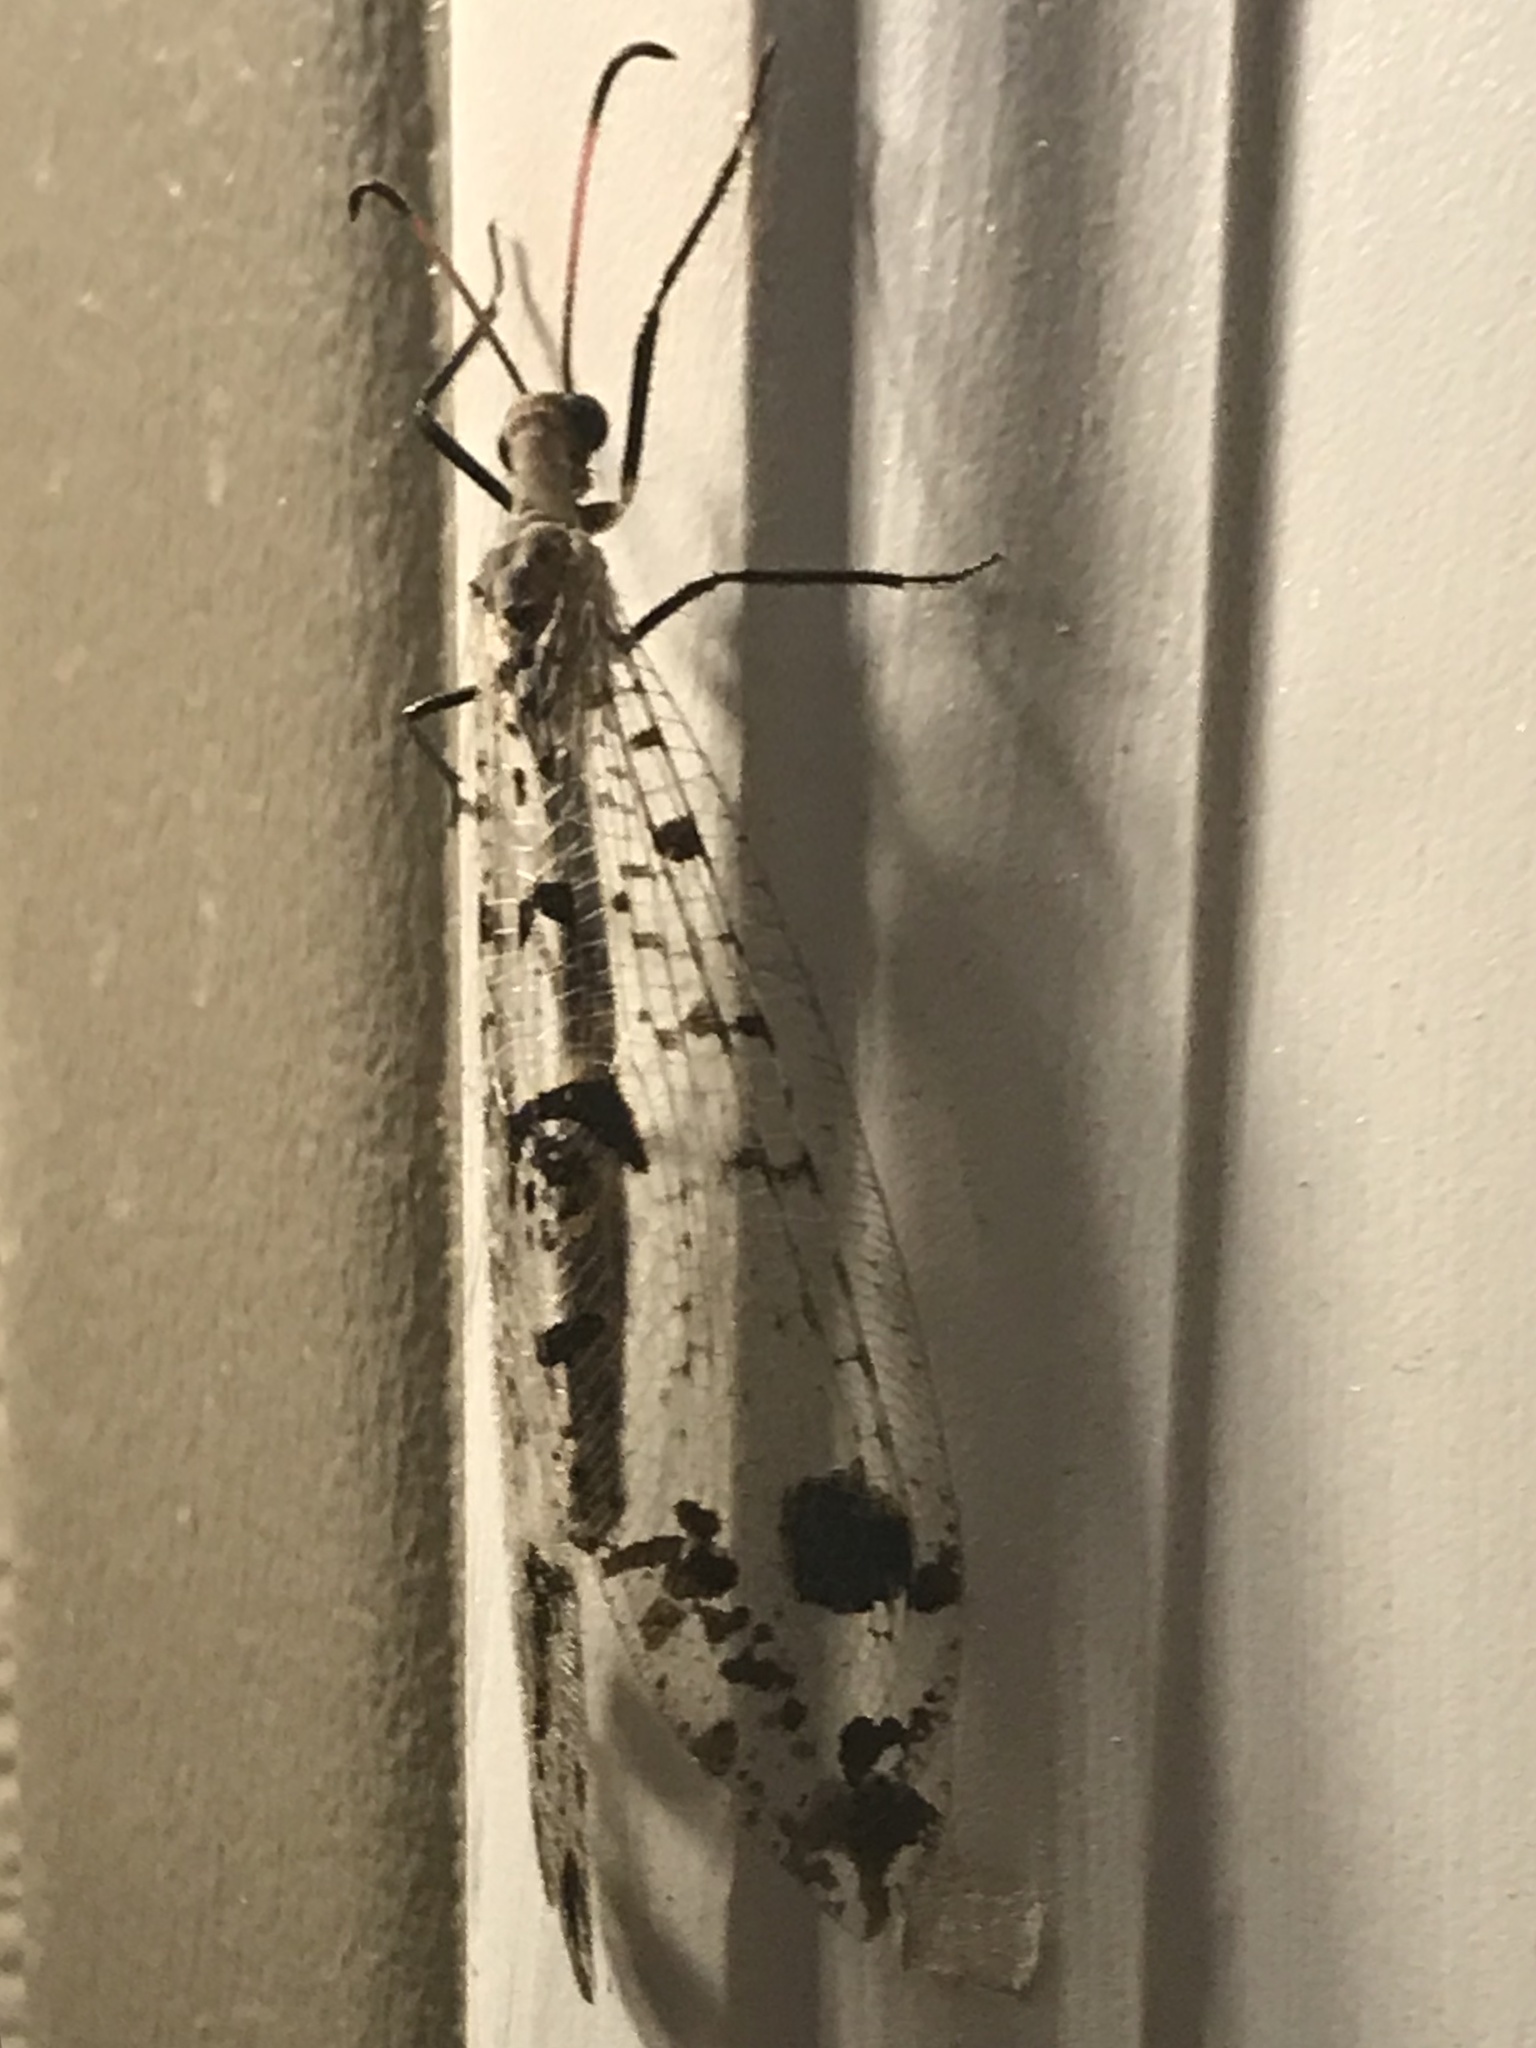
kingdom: Animalia
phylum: Arthropoda
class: Insecta
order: Neuroptera
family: Myrmeleontidae
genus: Dendroleon
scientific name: Dendroleon obsoletus
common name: Eastern spotted-winged antlion
